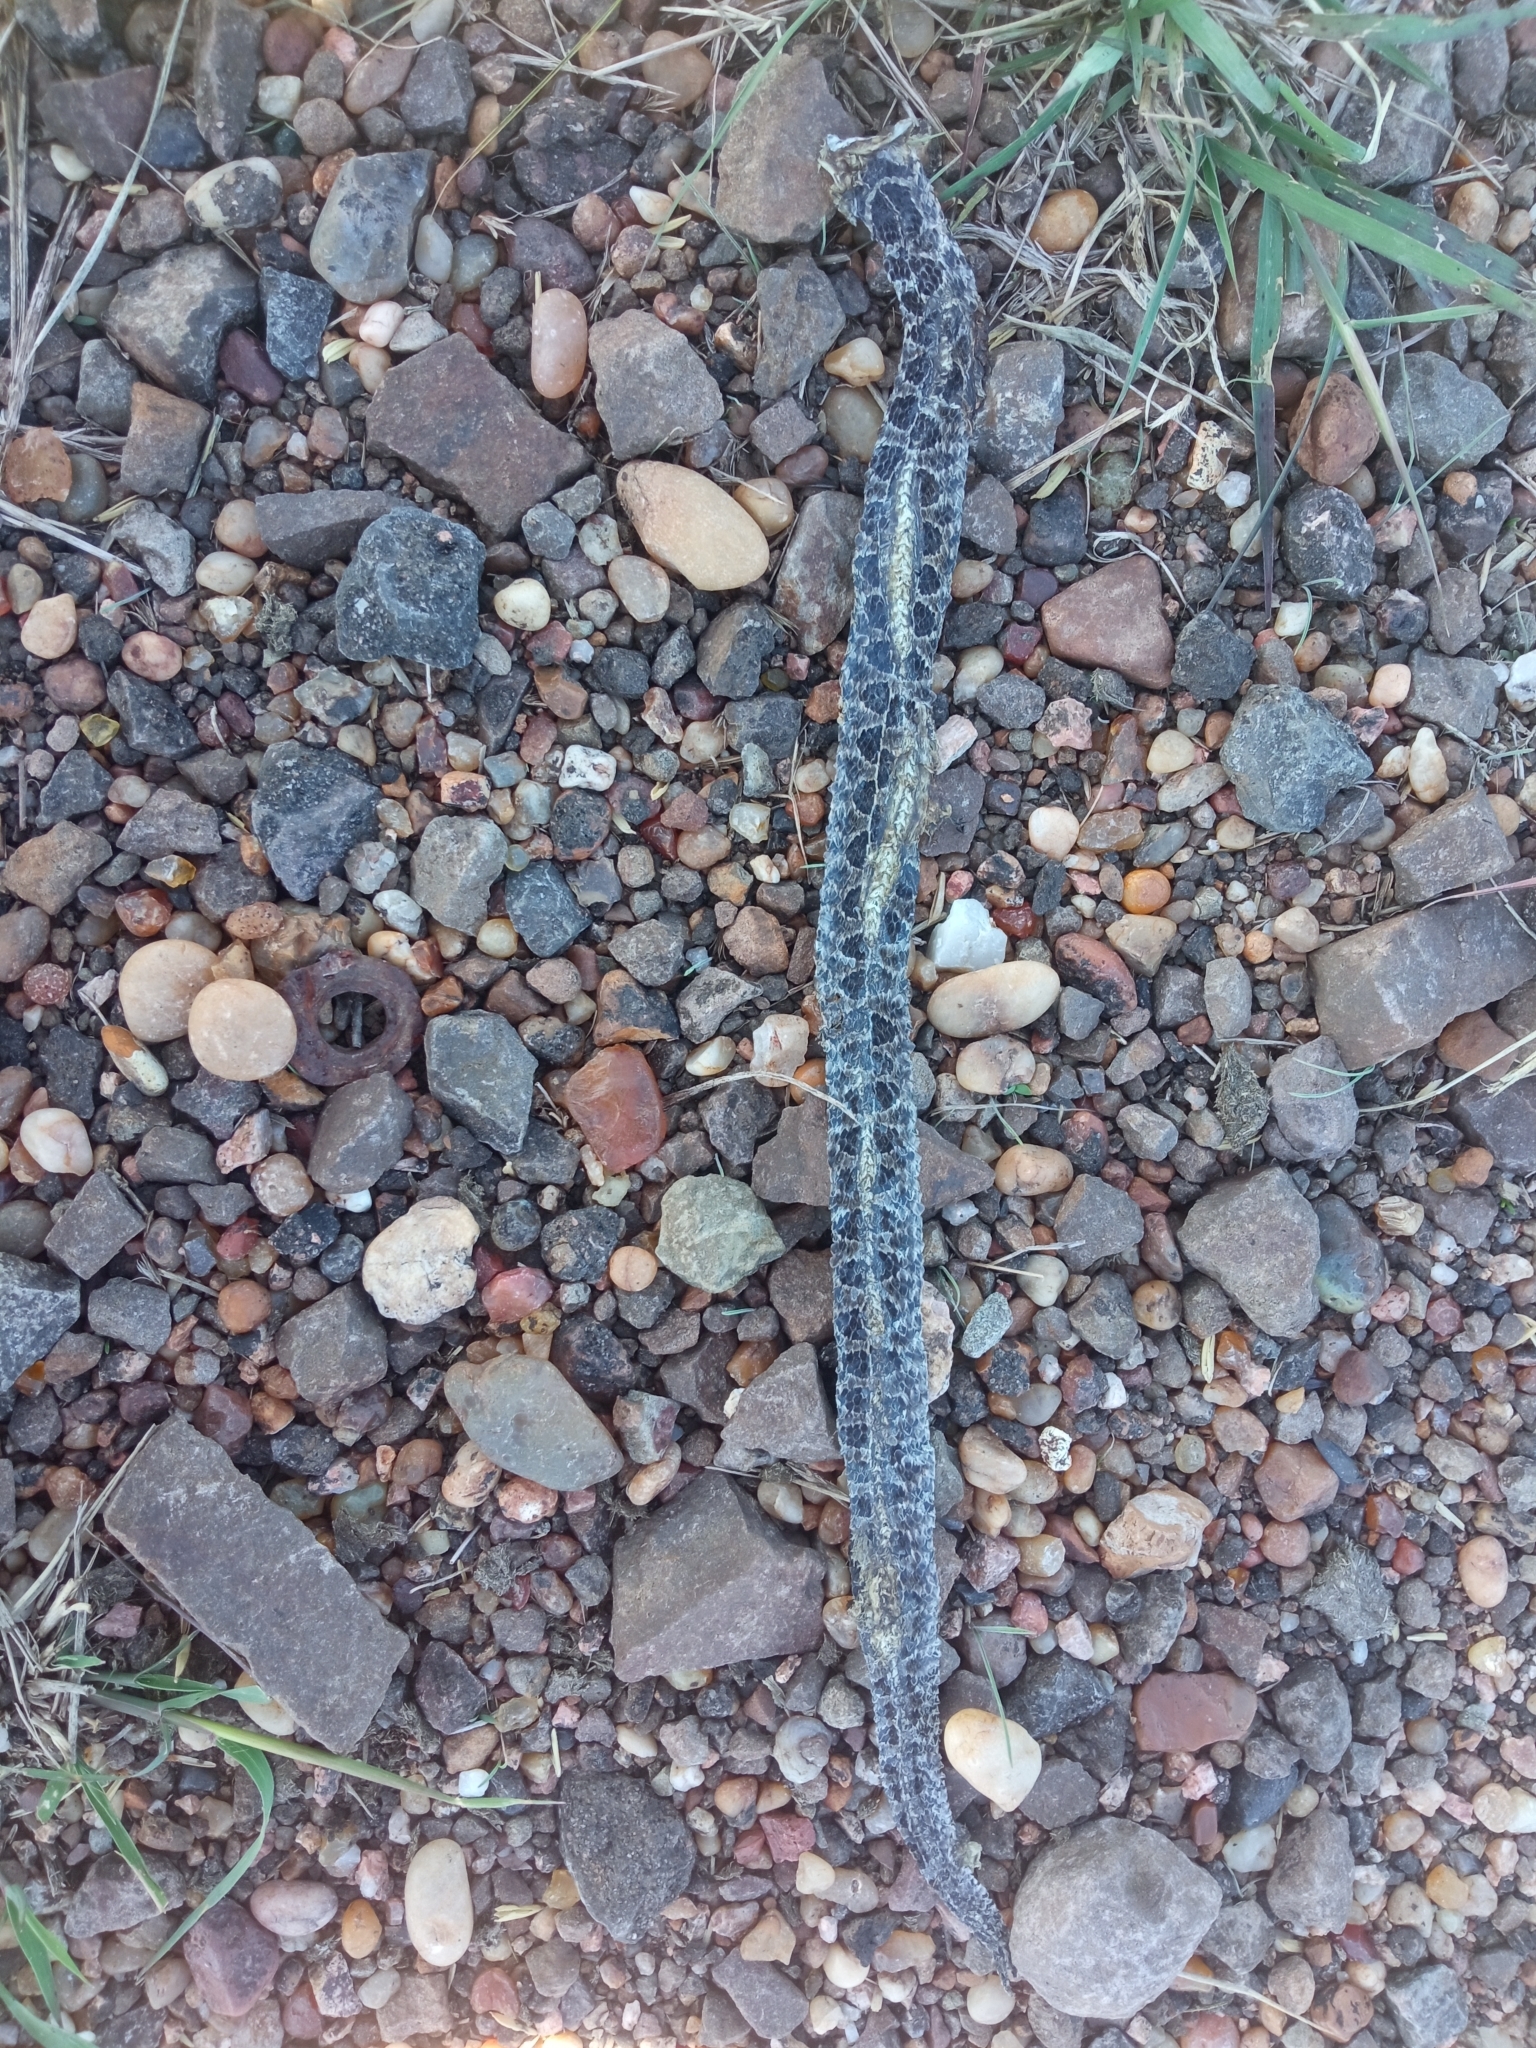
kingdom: Animalia
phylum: Chordata
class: Squamata
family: Colubridae
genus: Tachymenis
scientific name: Tachymenis
